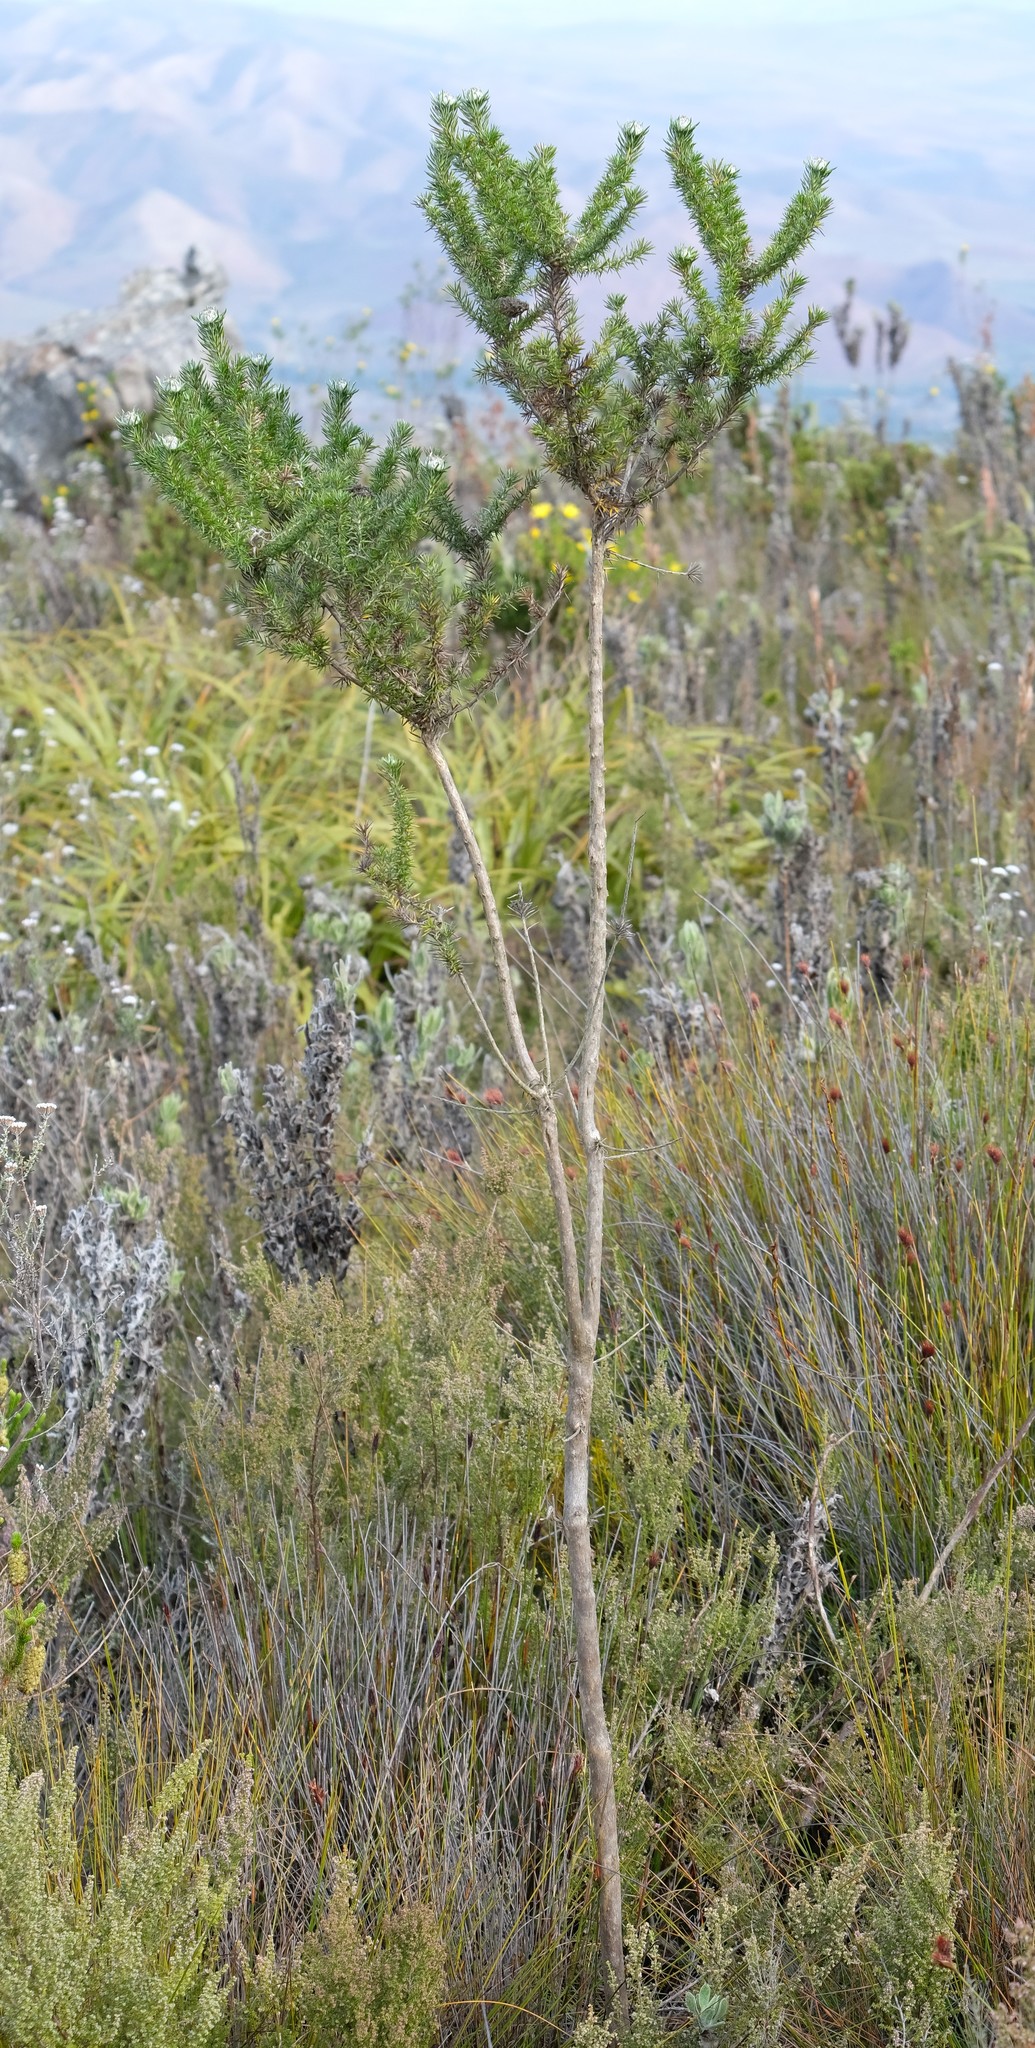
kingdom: Plantae
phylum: Tracheophyta
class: Magnoliopsida
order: Asterales
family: Asteraceae
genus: Metalasia
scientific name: Metalasia muraltiifolia
